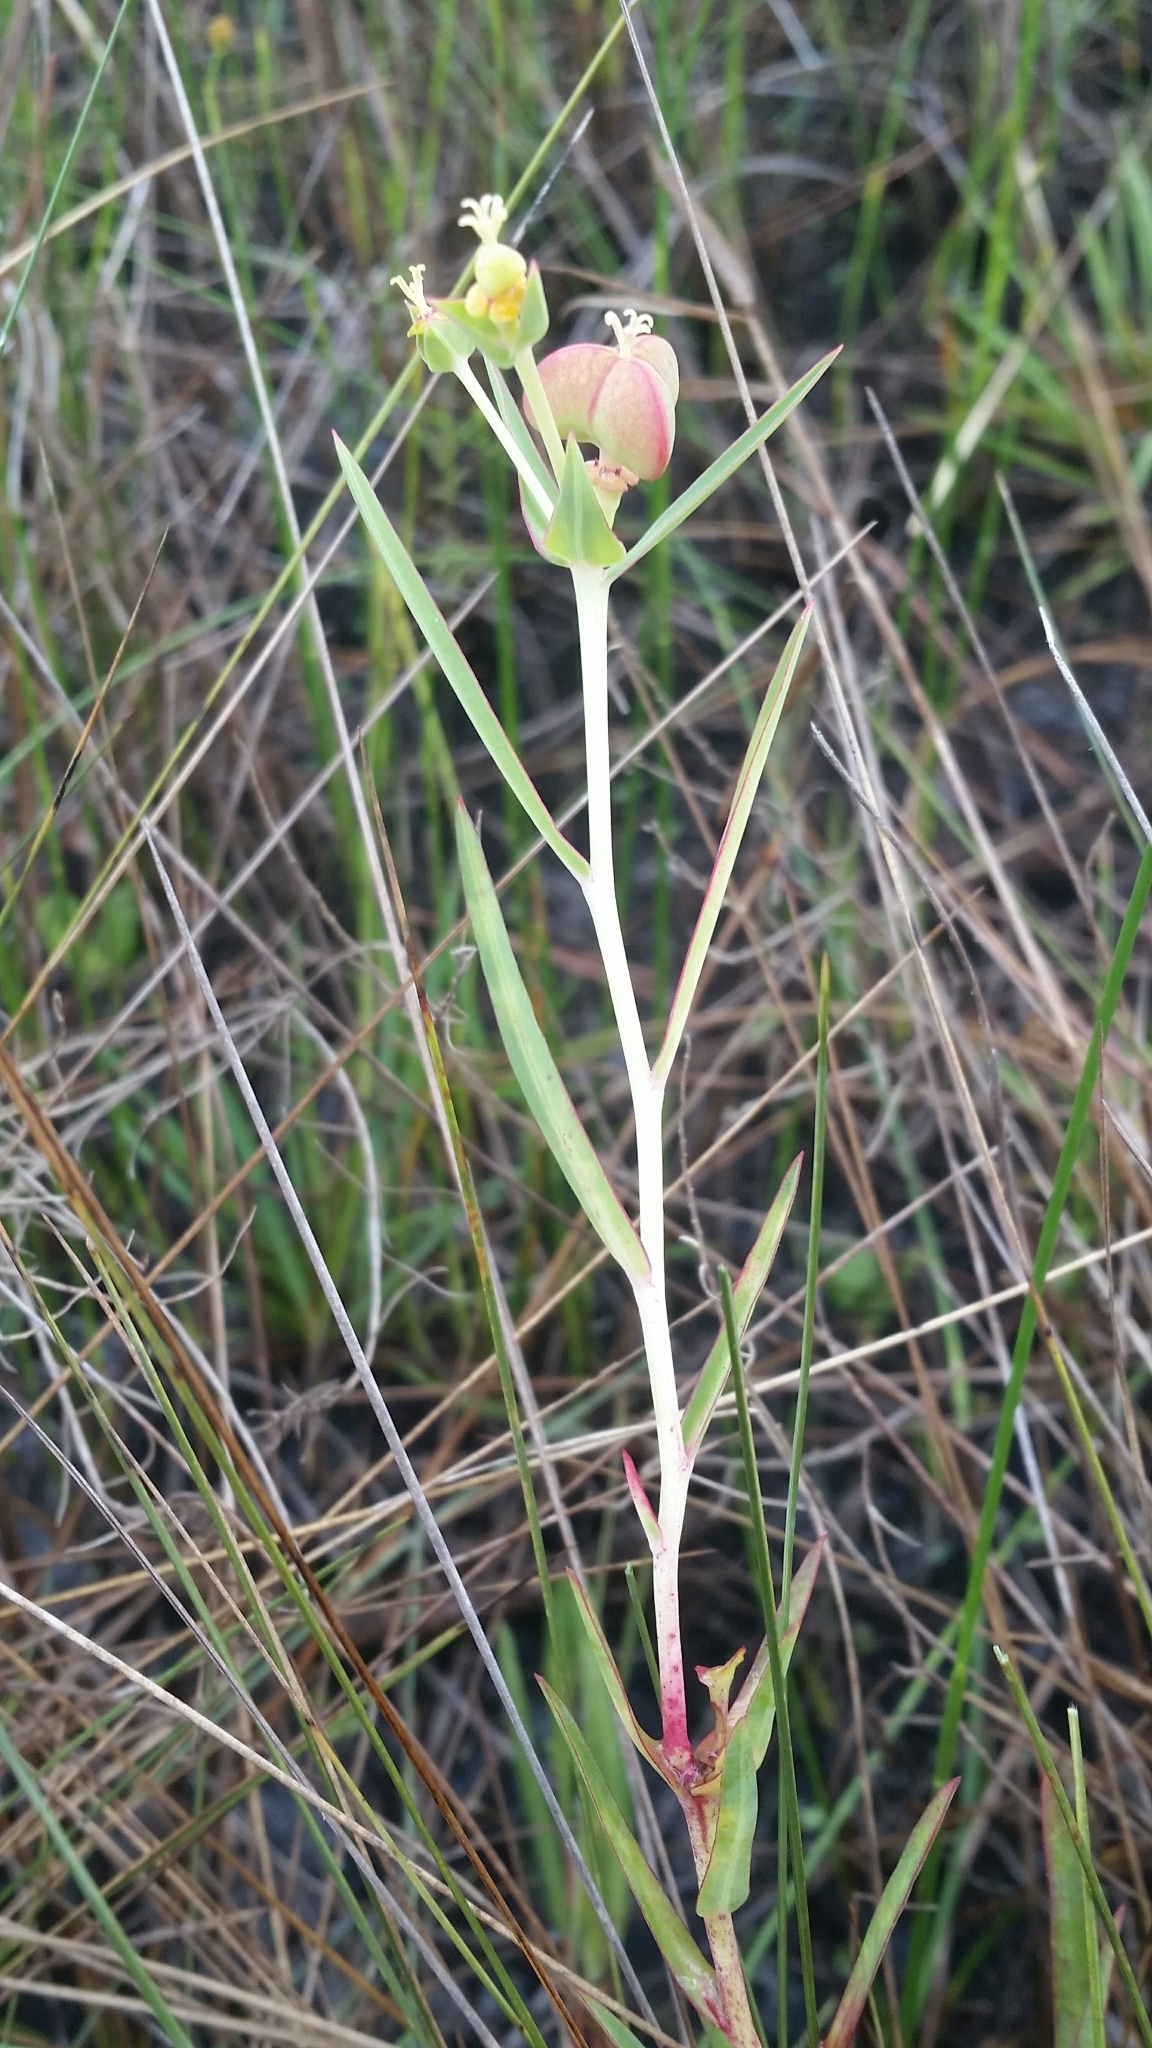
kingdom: Plantae
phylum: Tracheophyta
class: Magnoliopsida
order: Malpighiales
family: Euphorbiaceae
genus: Euphorbia
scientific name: Euphorbia inundata
